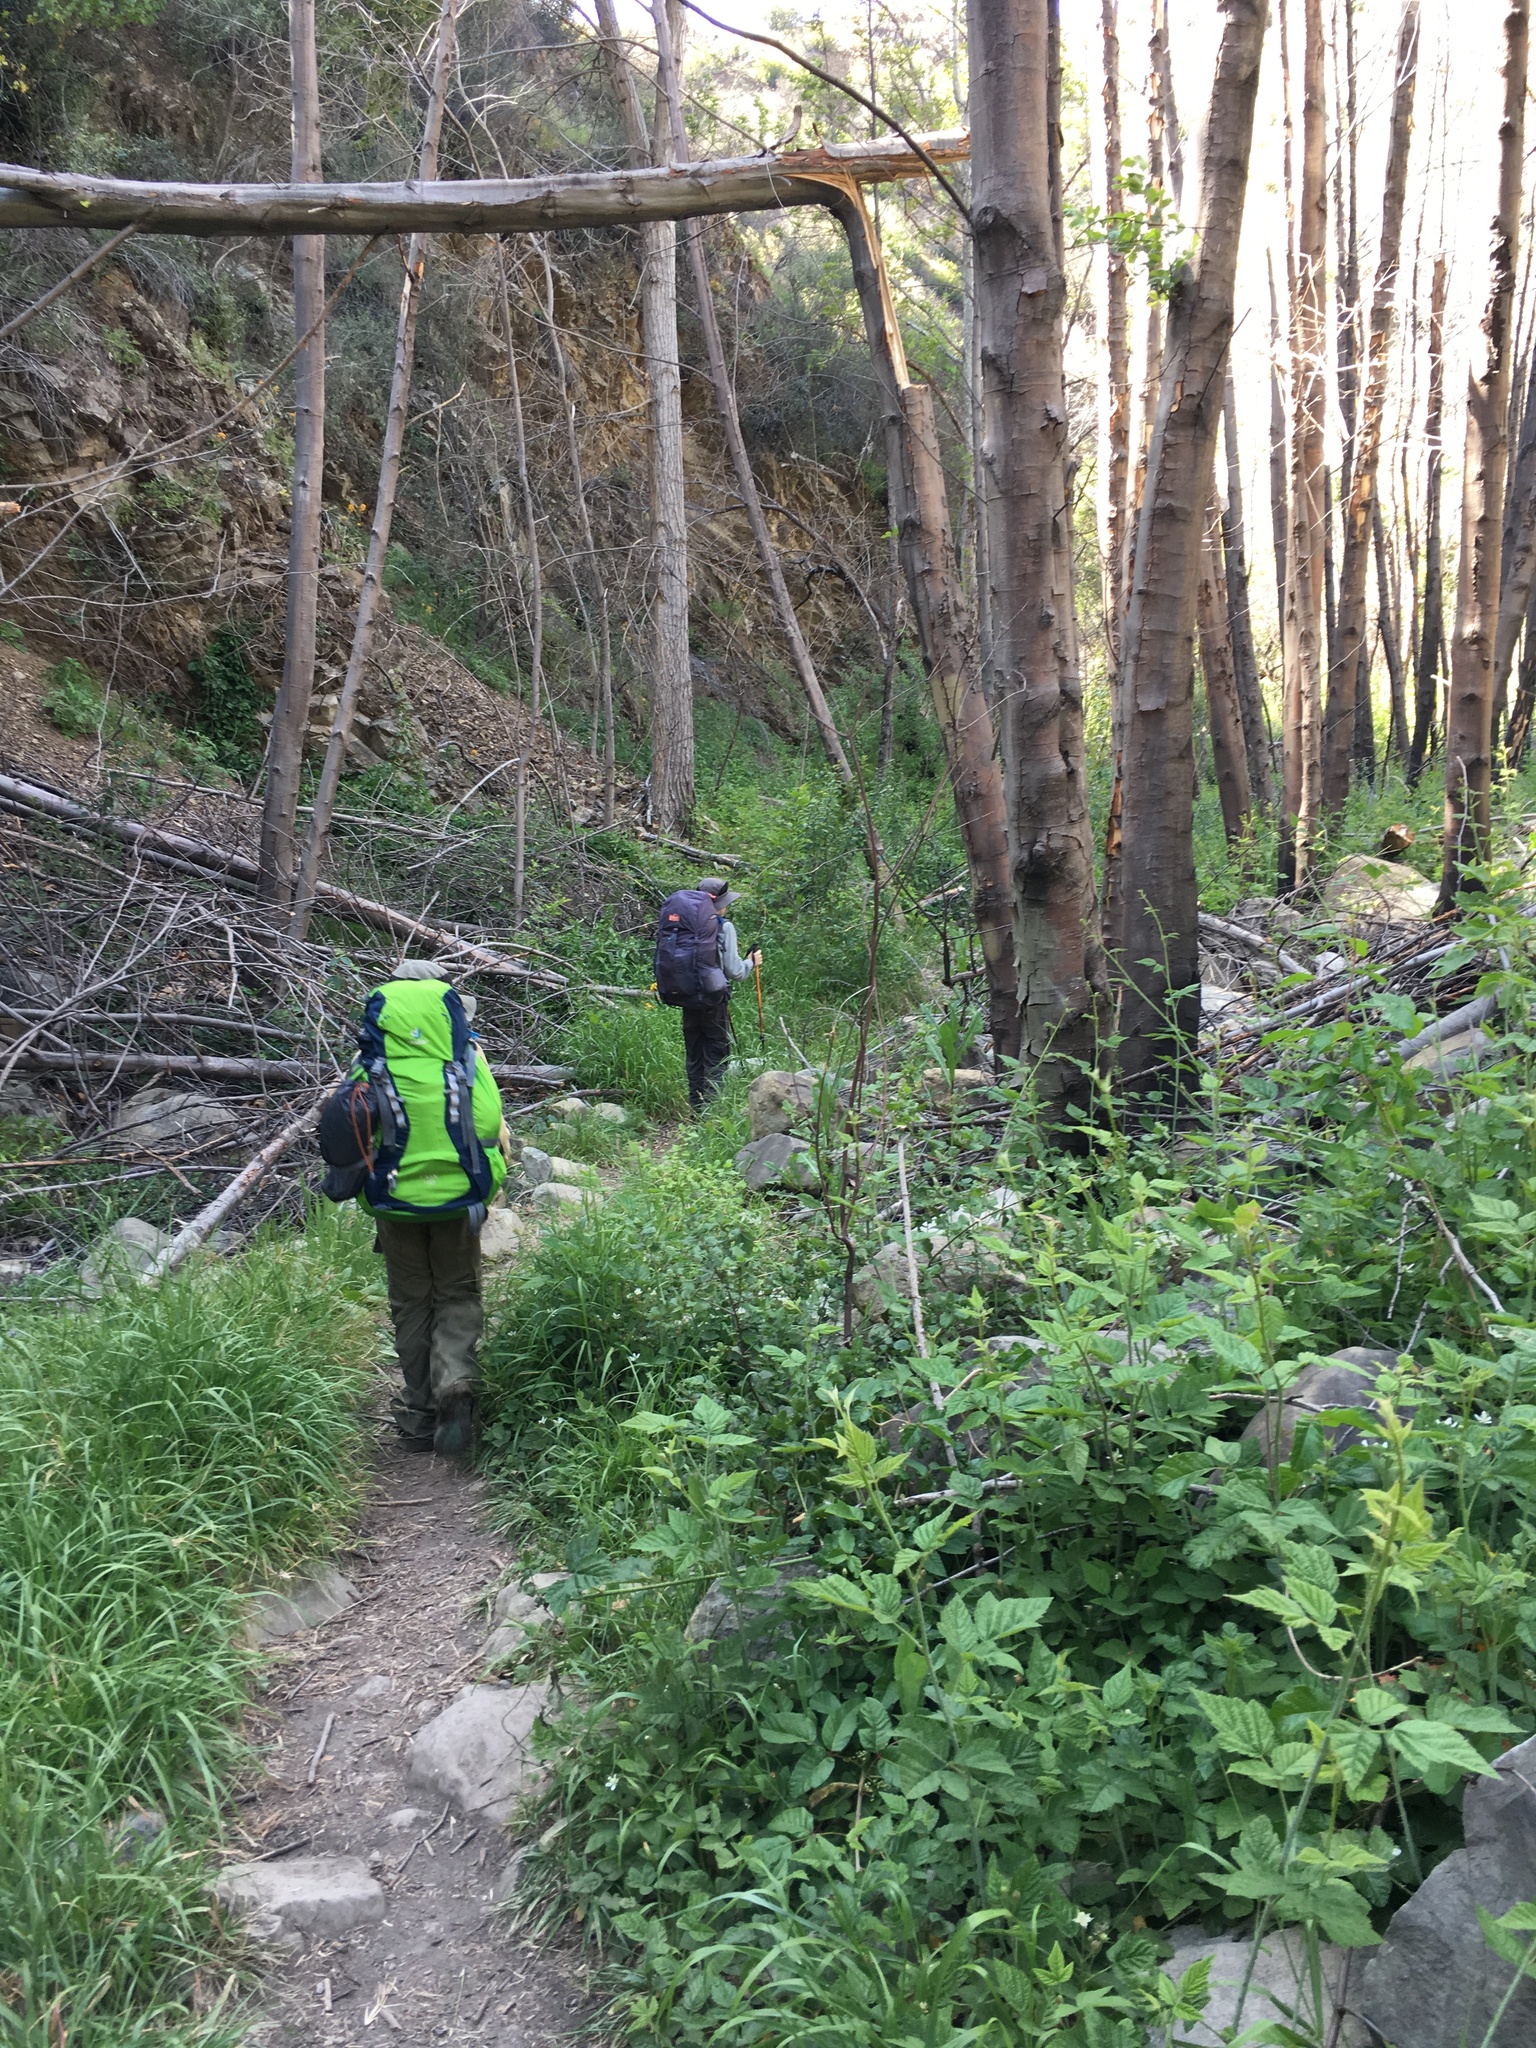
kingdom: Plantae
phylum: Tracheophyta
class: Magnoliopsida
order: Rosales
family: Rosaceae
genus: Rubus
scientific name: Rubus ursinus
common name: Pacific blackberry
